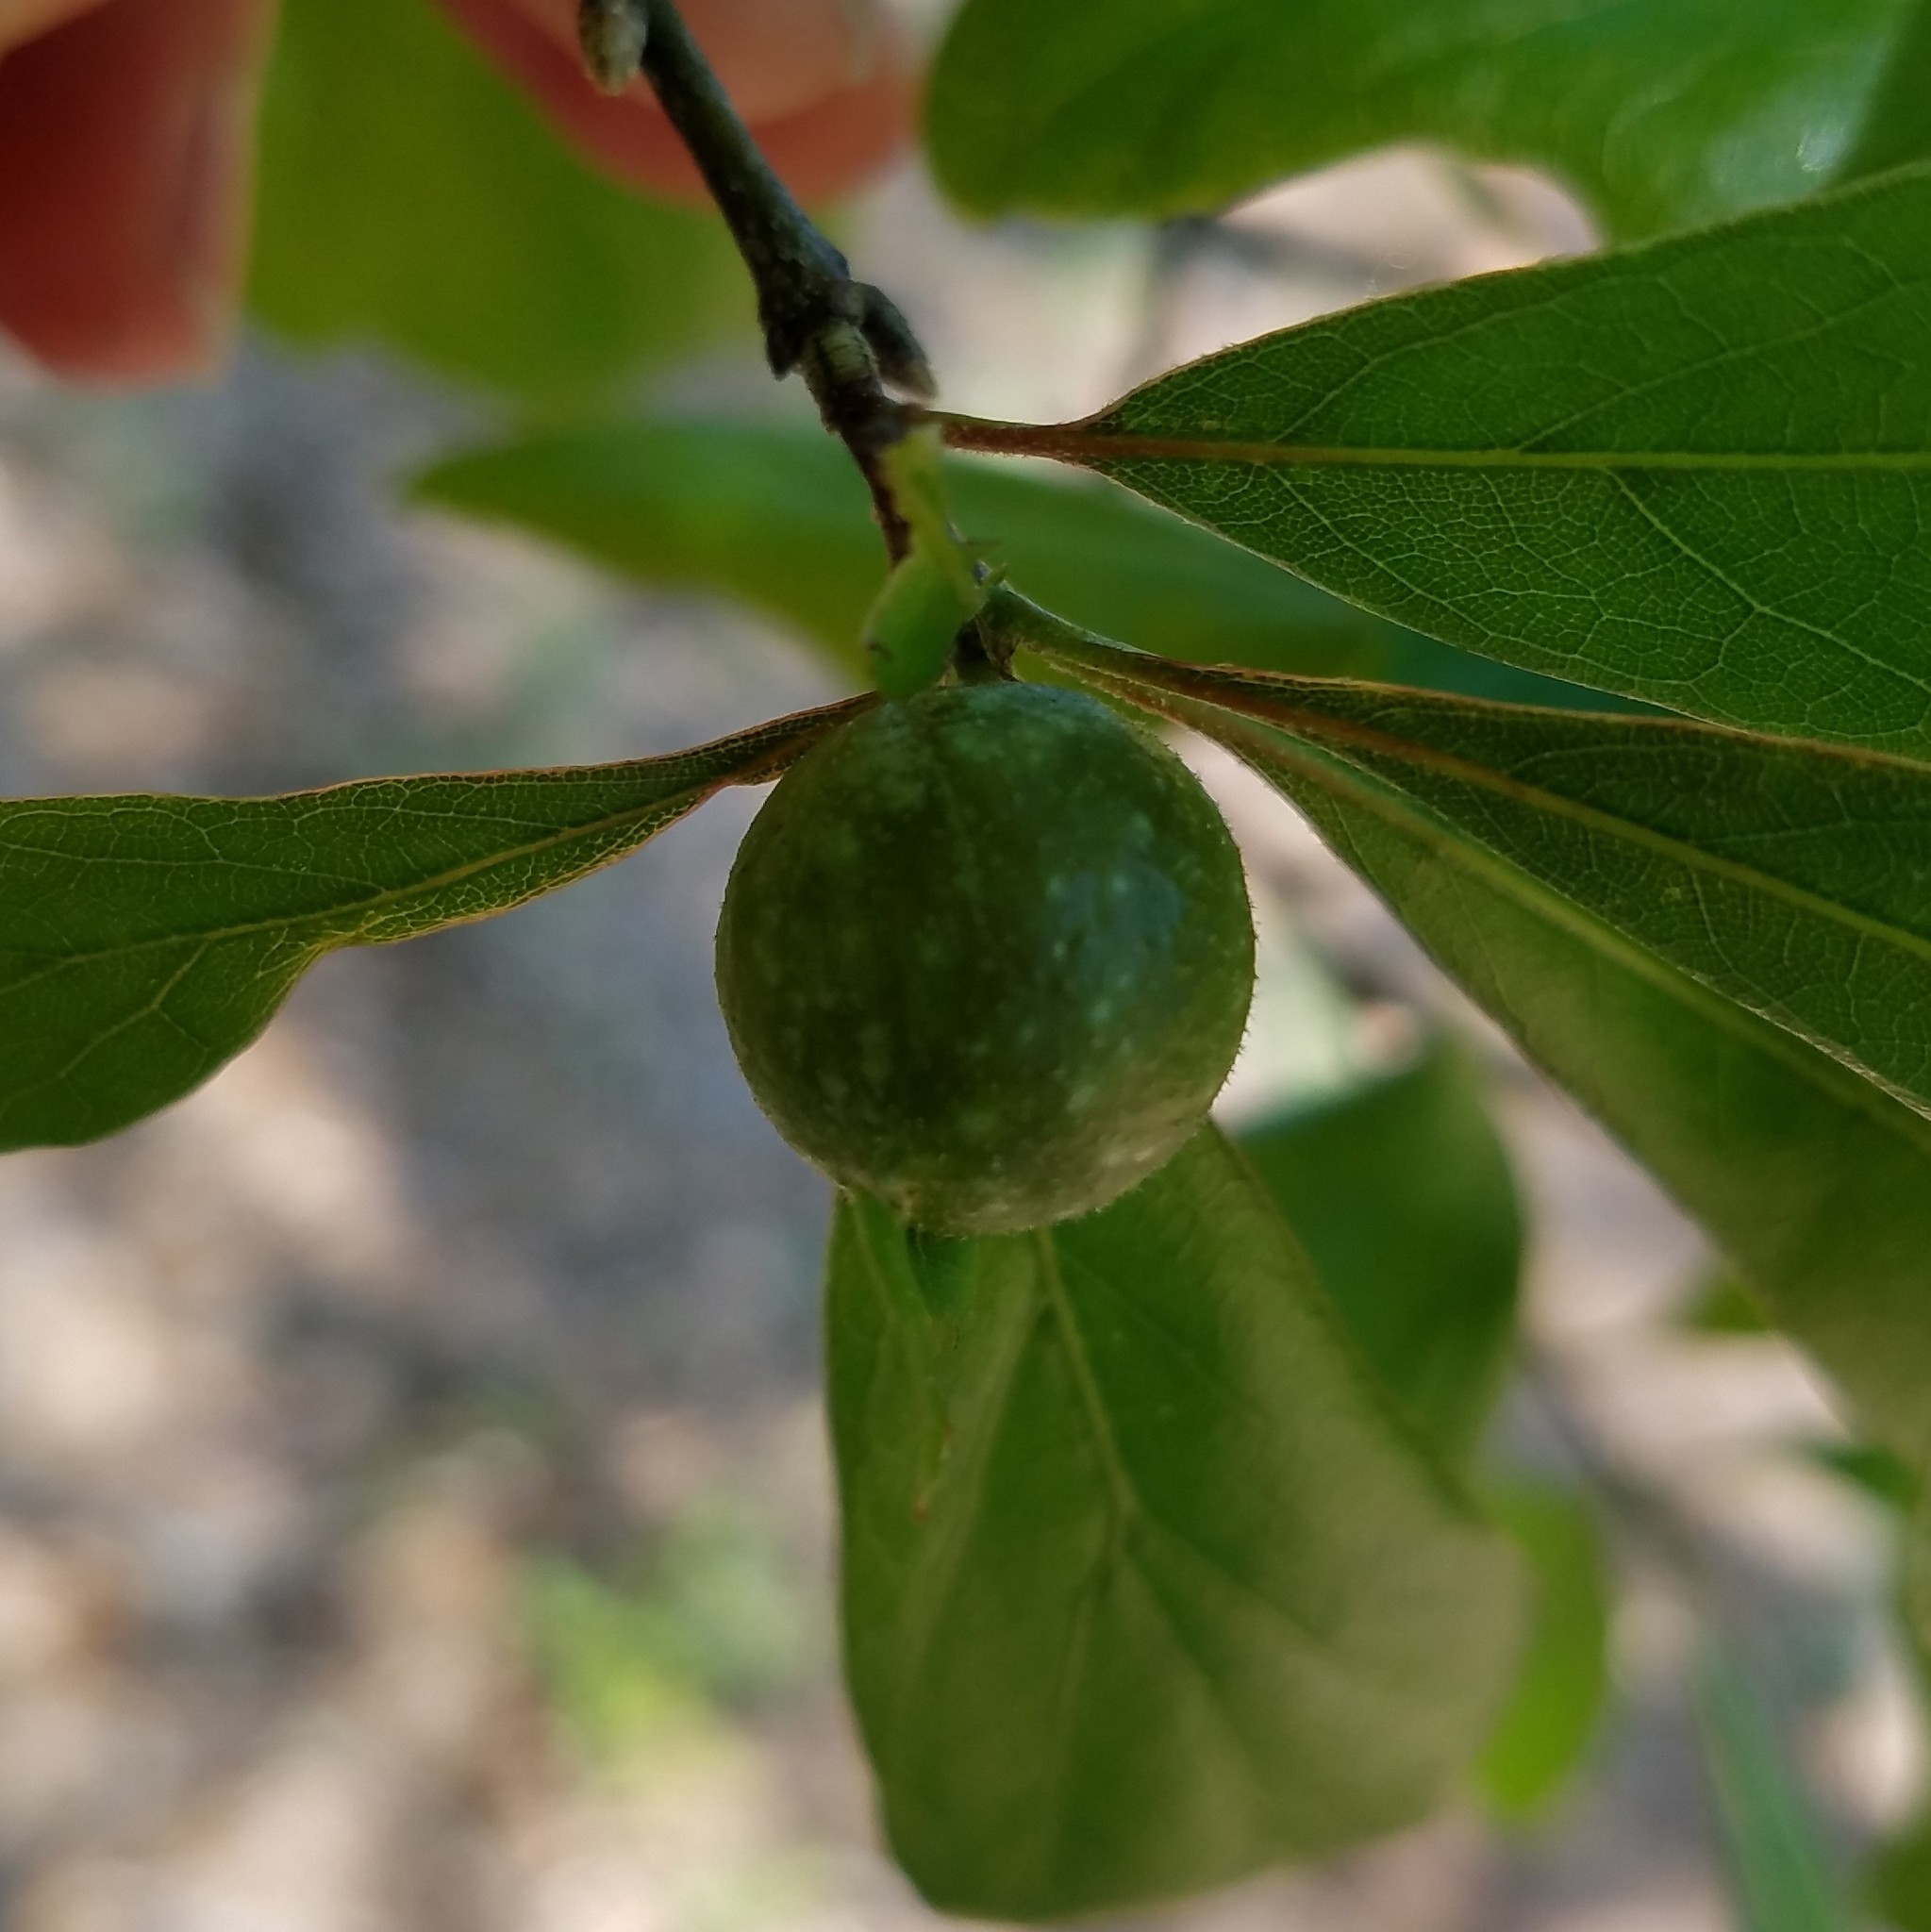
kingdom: Animalia
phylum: Arthropoda
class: Insecta
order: Hymenoptera
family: Cynipidae
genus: Dryocosmus
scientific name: Dryocosmus quercuspalustris
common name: Succulent oak gall wasp
